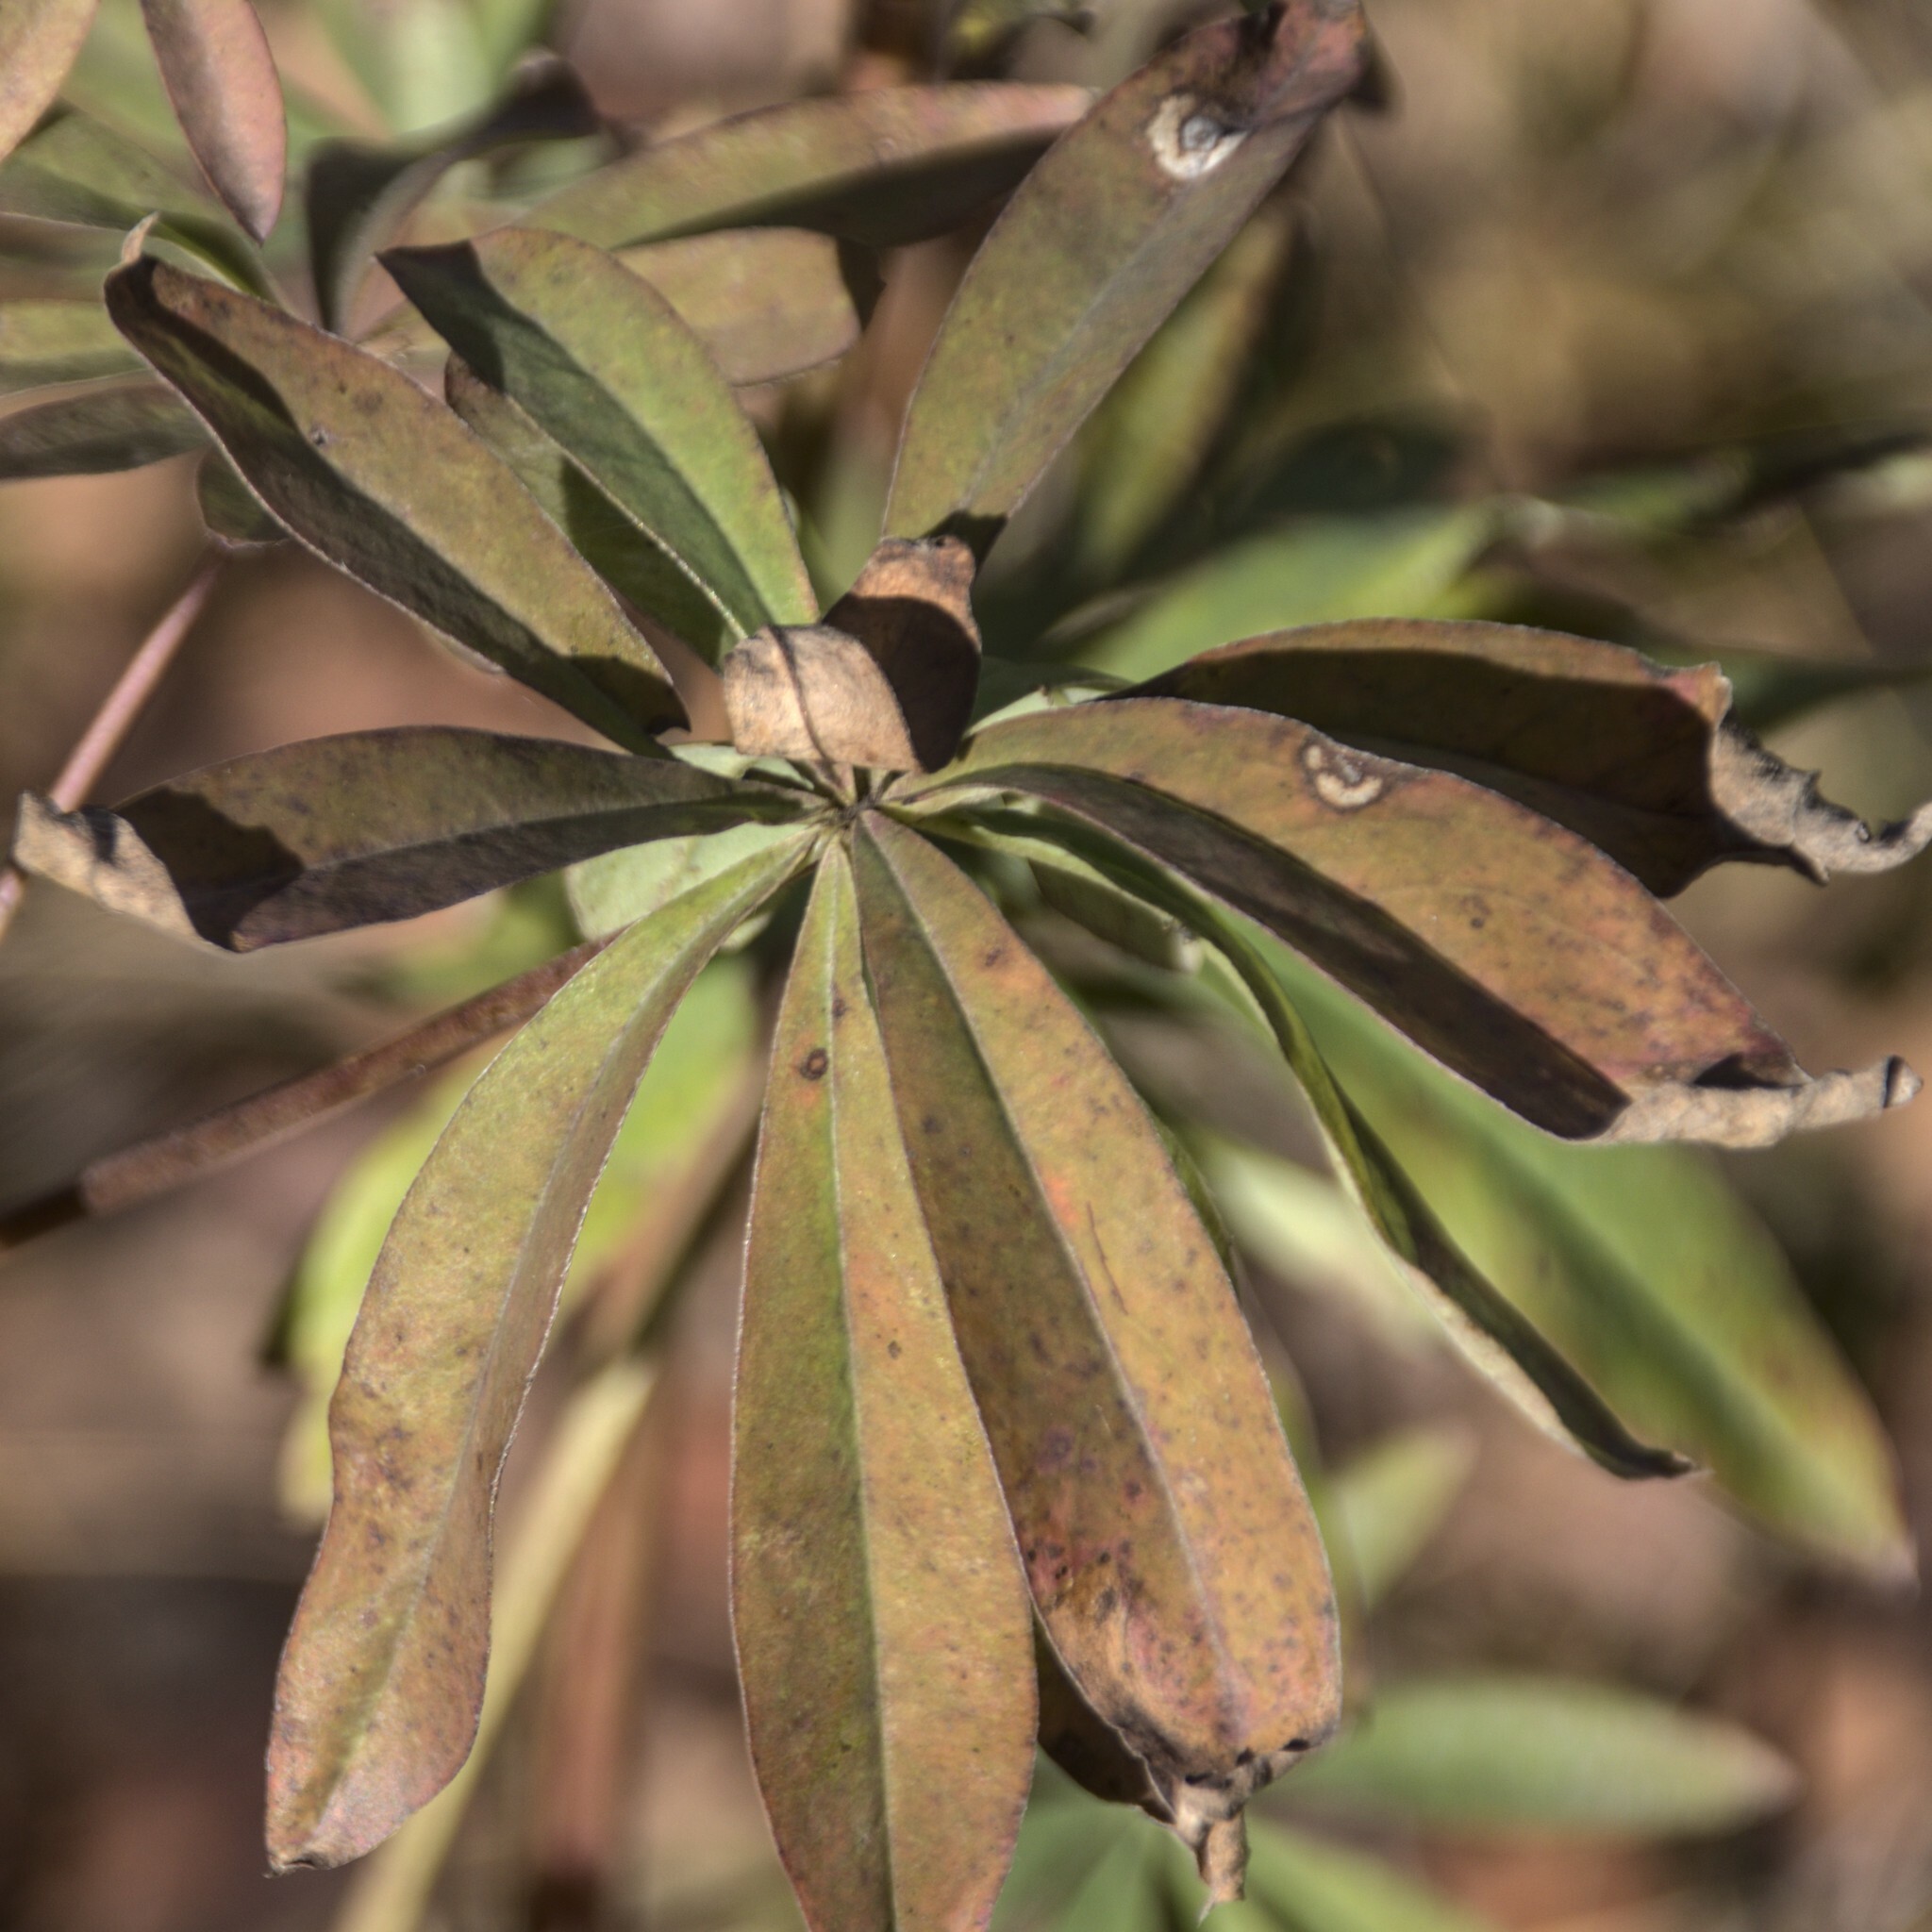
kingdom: Plantae
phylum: Tracheophyta
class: Magnoliopsida
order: Fabales
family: Fabaceae
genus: Lupinus
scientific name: Lupinus polyphyllus
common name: Garden lupin
